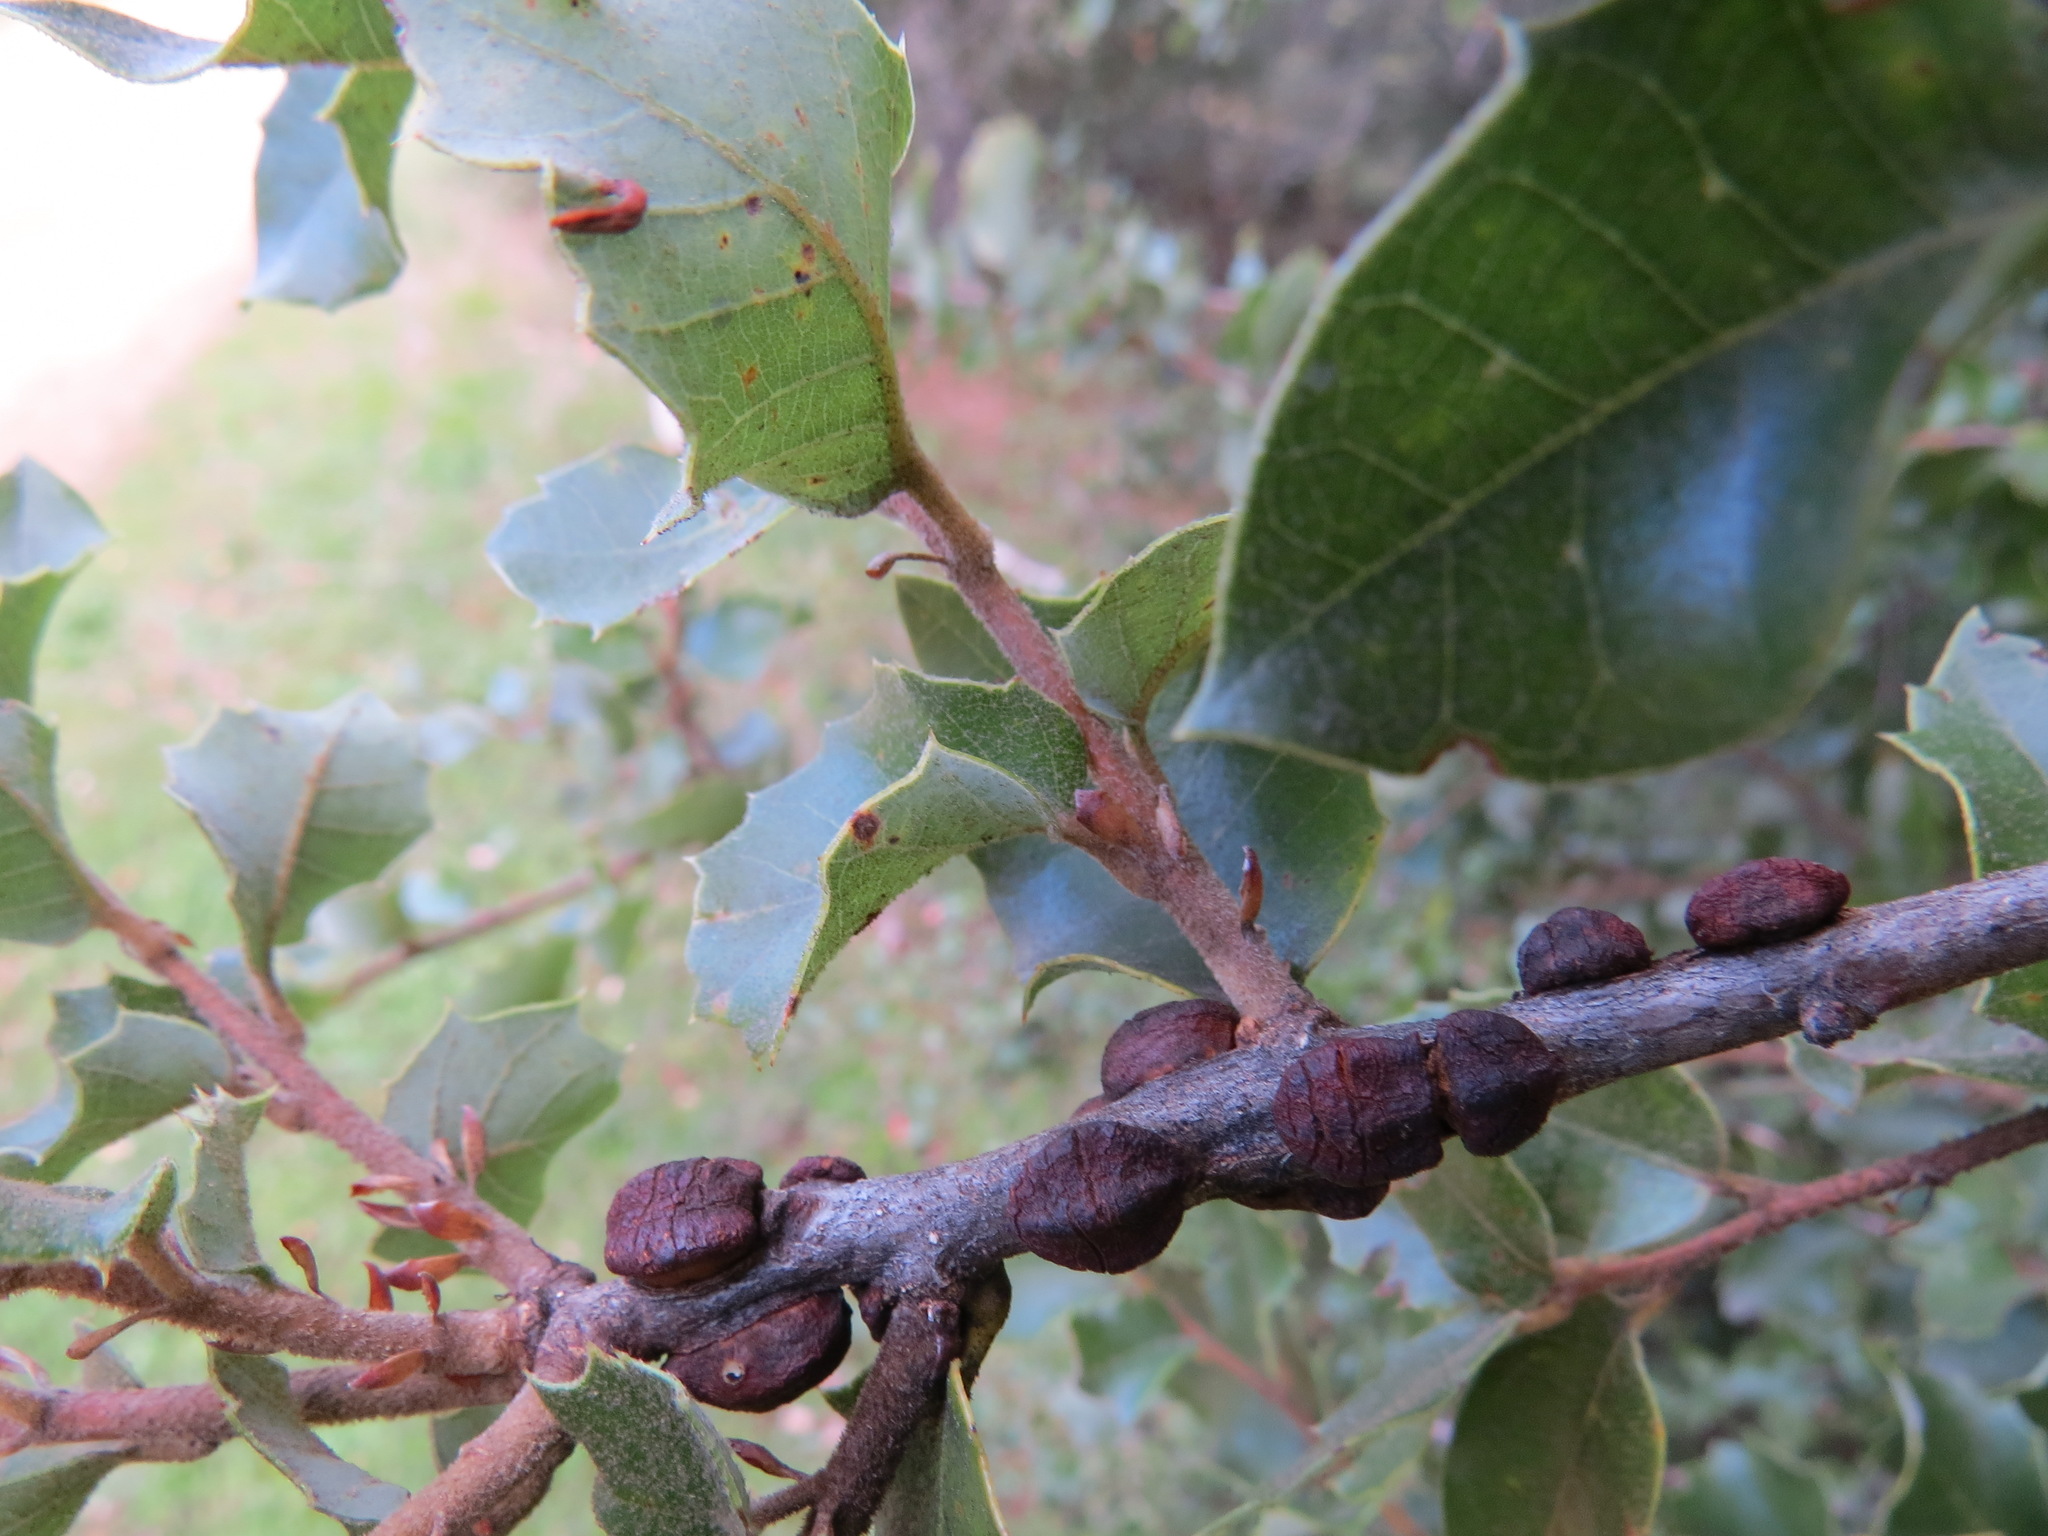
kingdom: Animalia
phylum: Arthropoda
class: Insecta
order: Hymenoptera
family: Cynipidae
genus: Disholandricus
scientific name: Disholandricus
